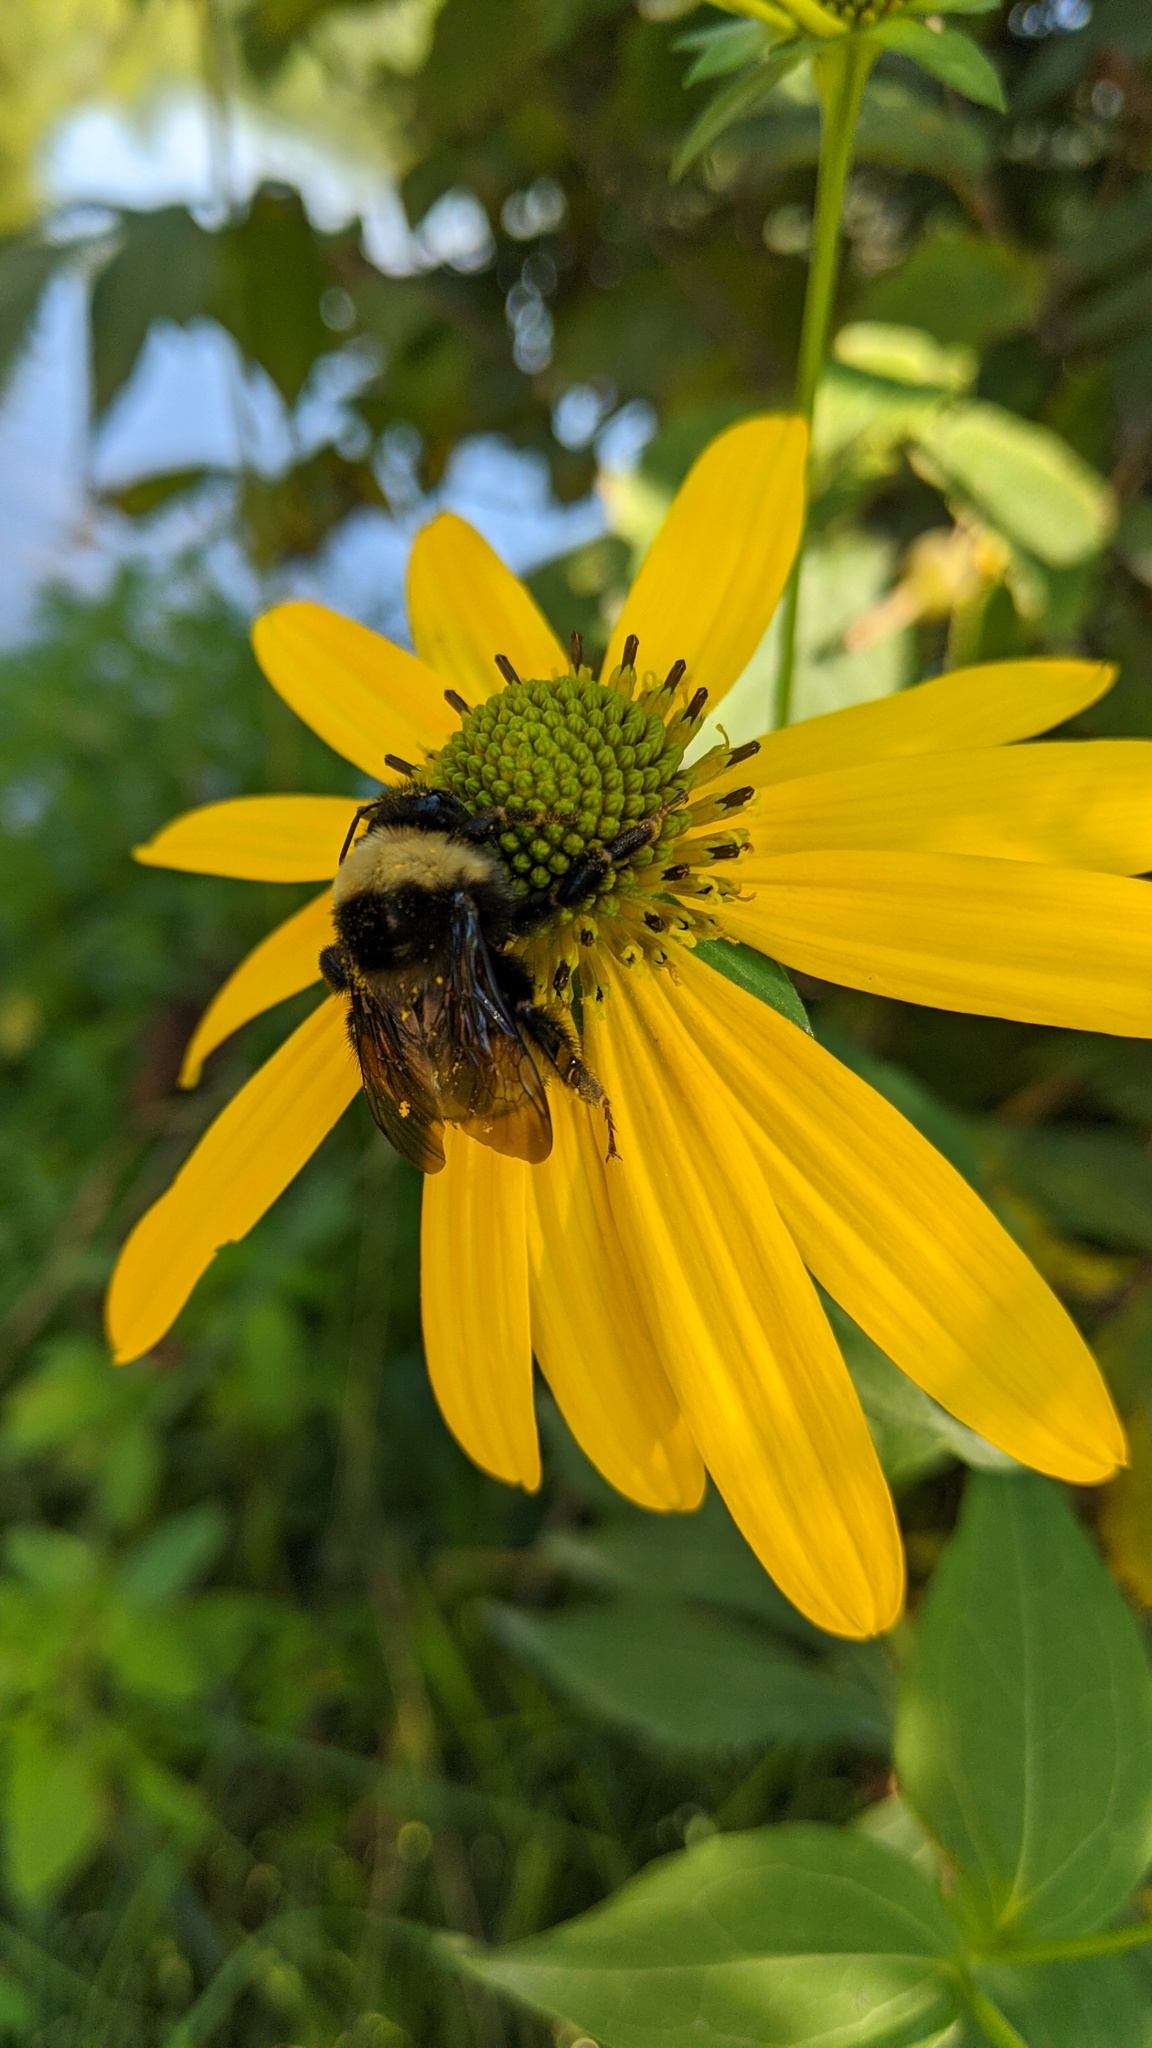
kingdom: Animalia
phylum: Arthropoda
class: Insecta
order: Hymenoptera
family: Apidae
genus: Bombus
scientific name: Bombus terricola
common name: Yellow-banded bumble bee
